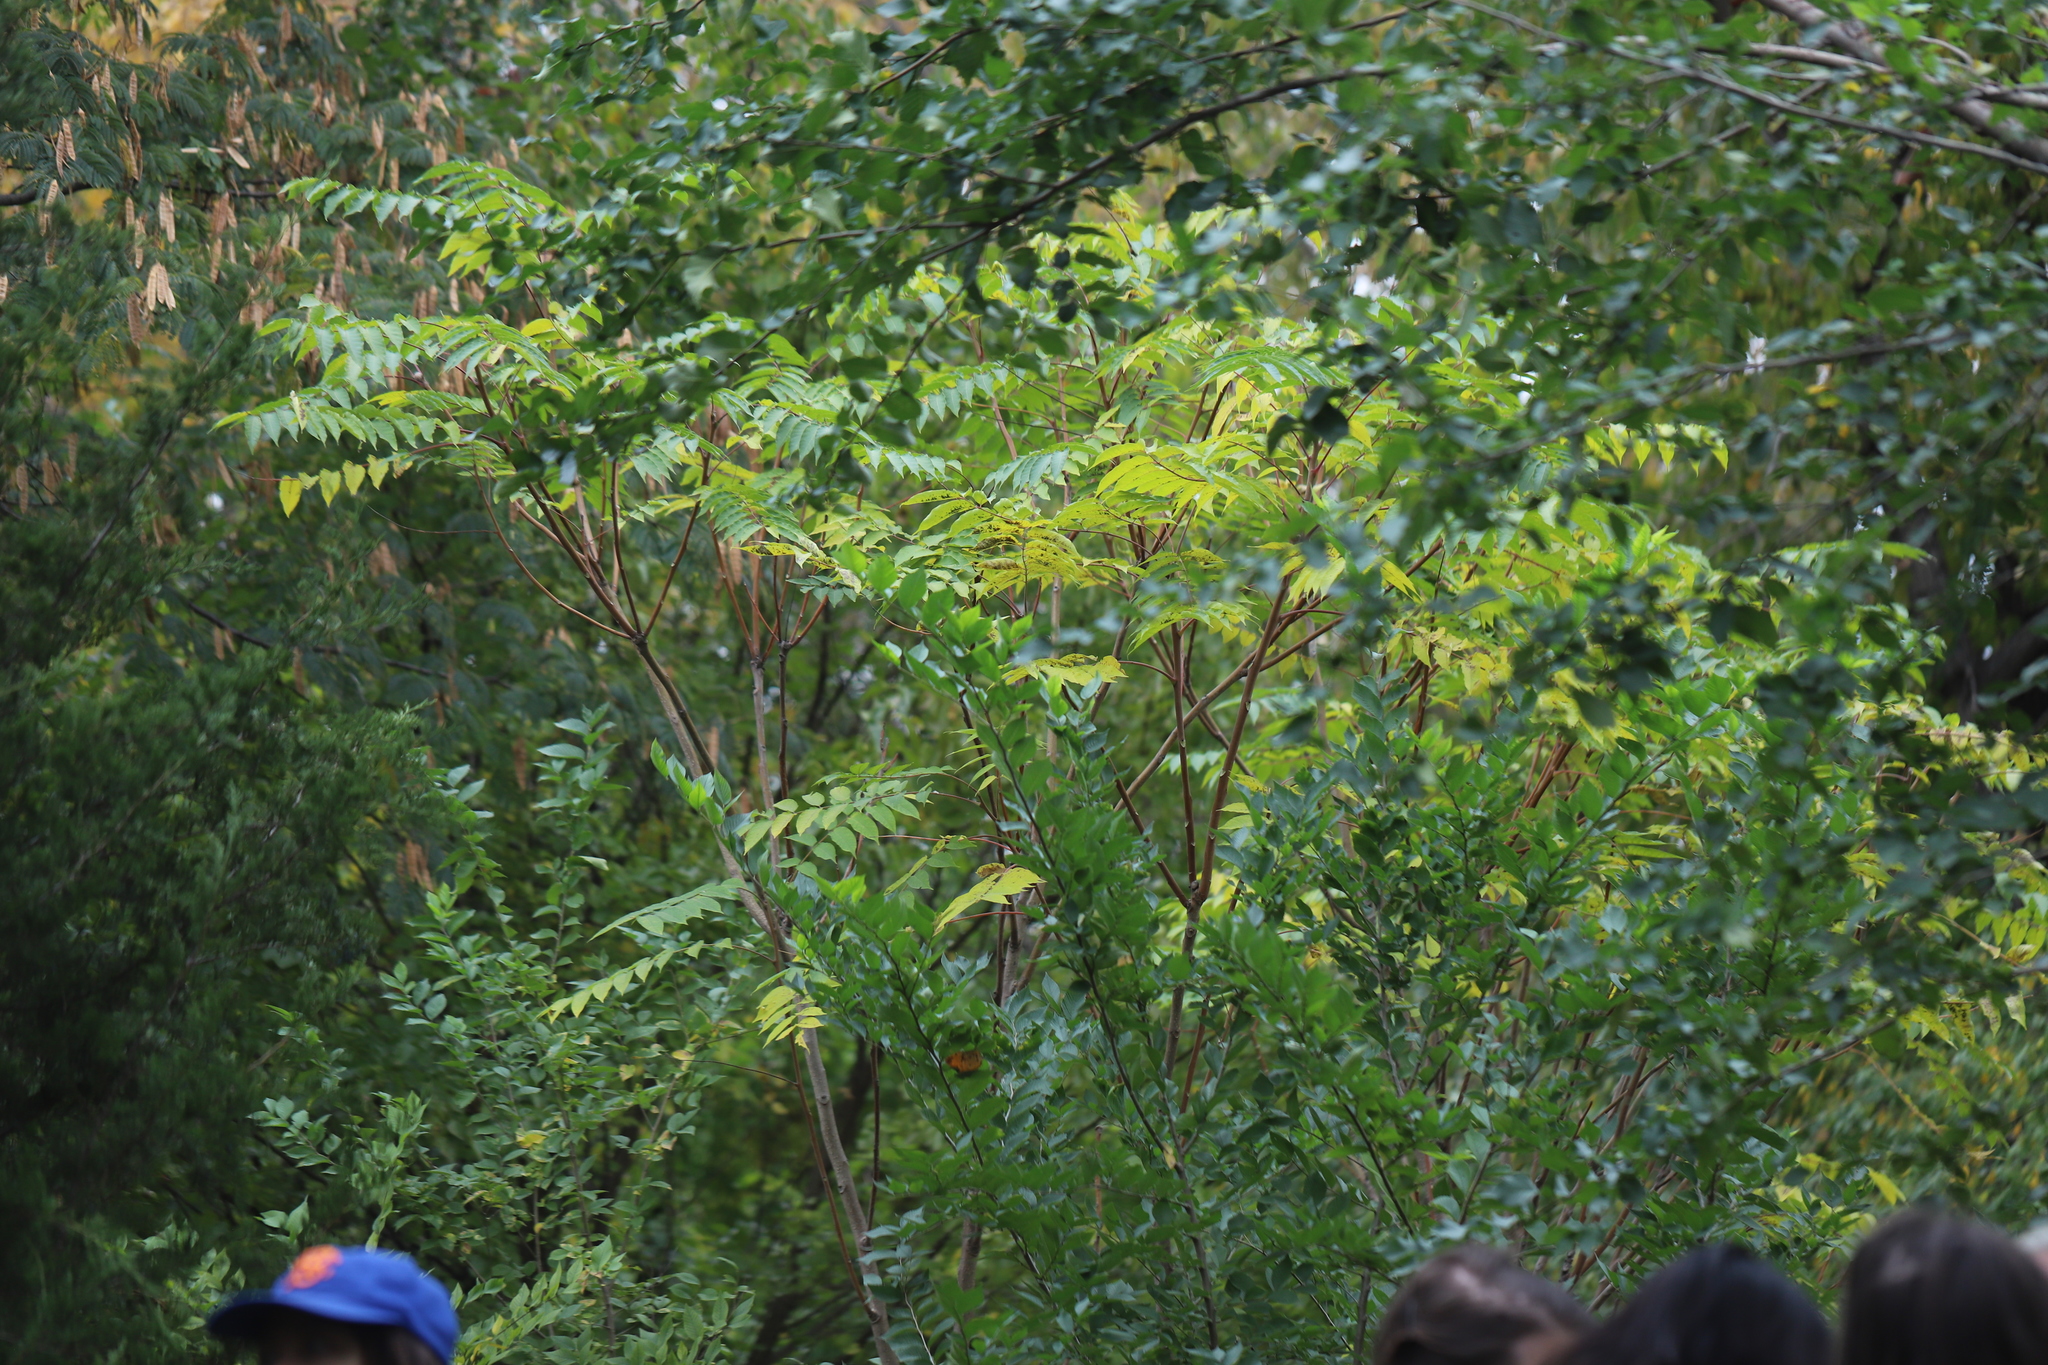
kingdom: Plantae
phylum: Tracheophyta
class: Magnoliopsida
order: Sapindales
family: Simaroubaceae
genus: Ailanthus
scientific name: Ailanthus altissima
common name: Tree-of-heaven
